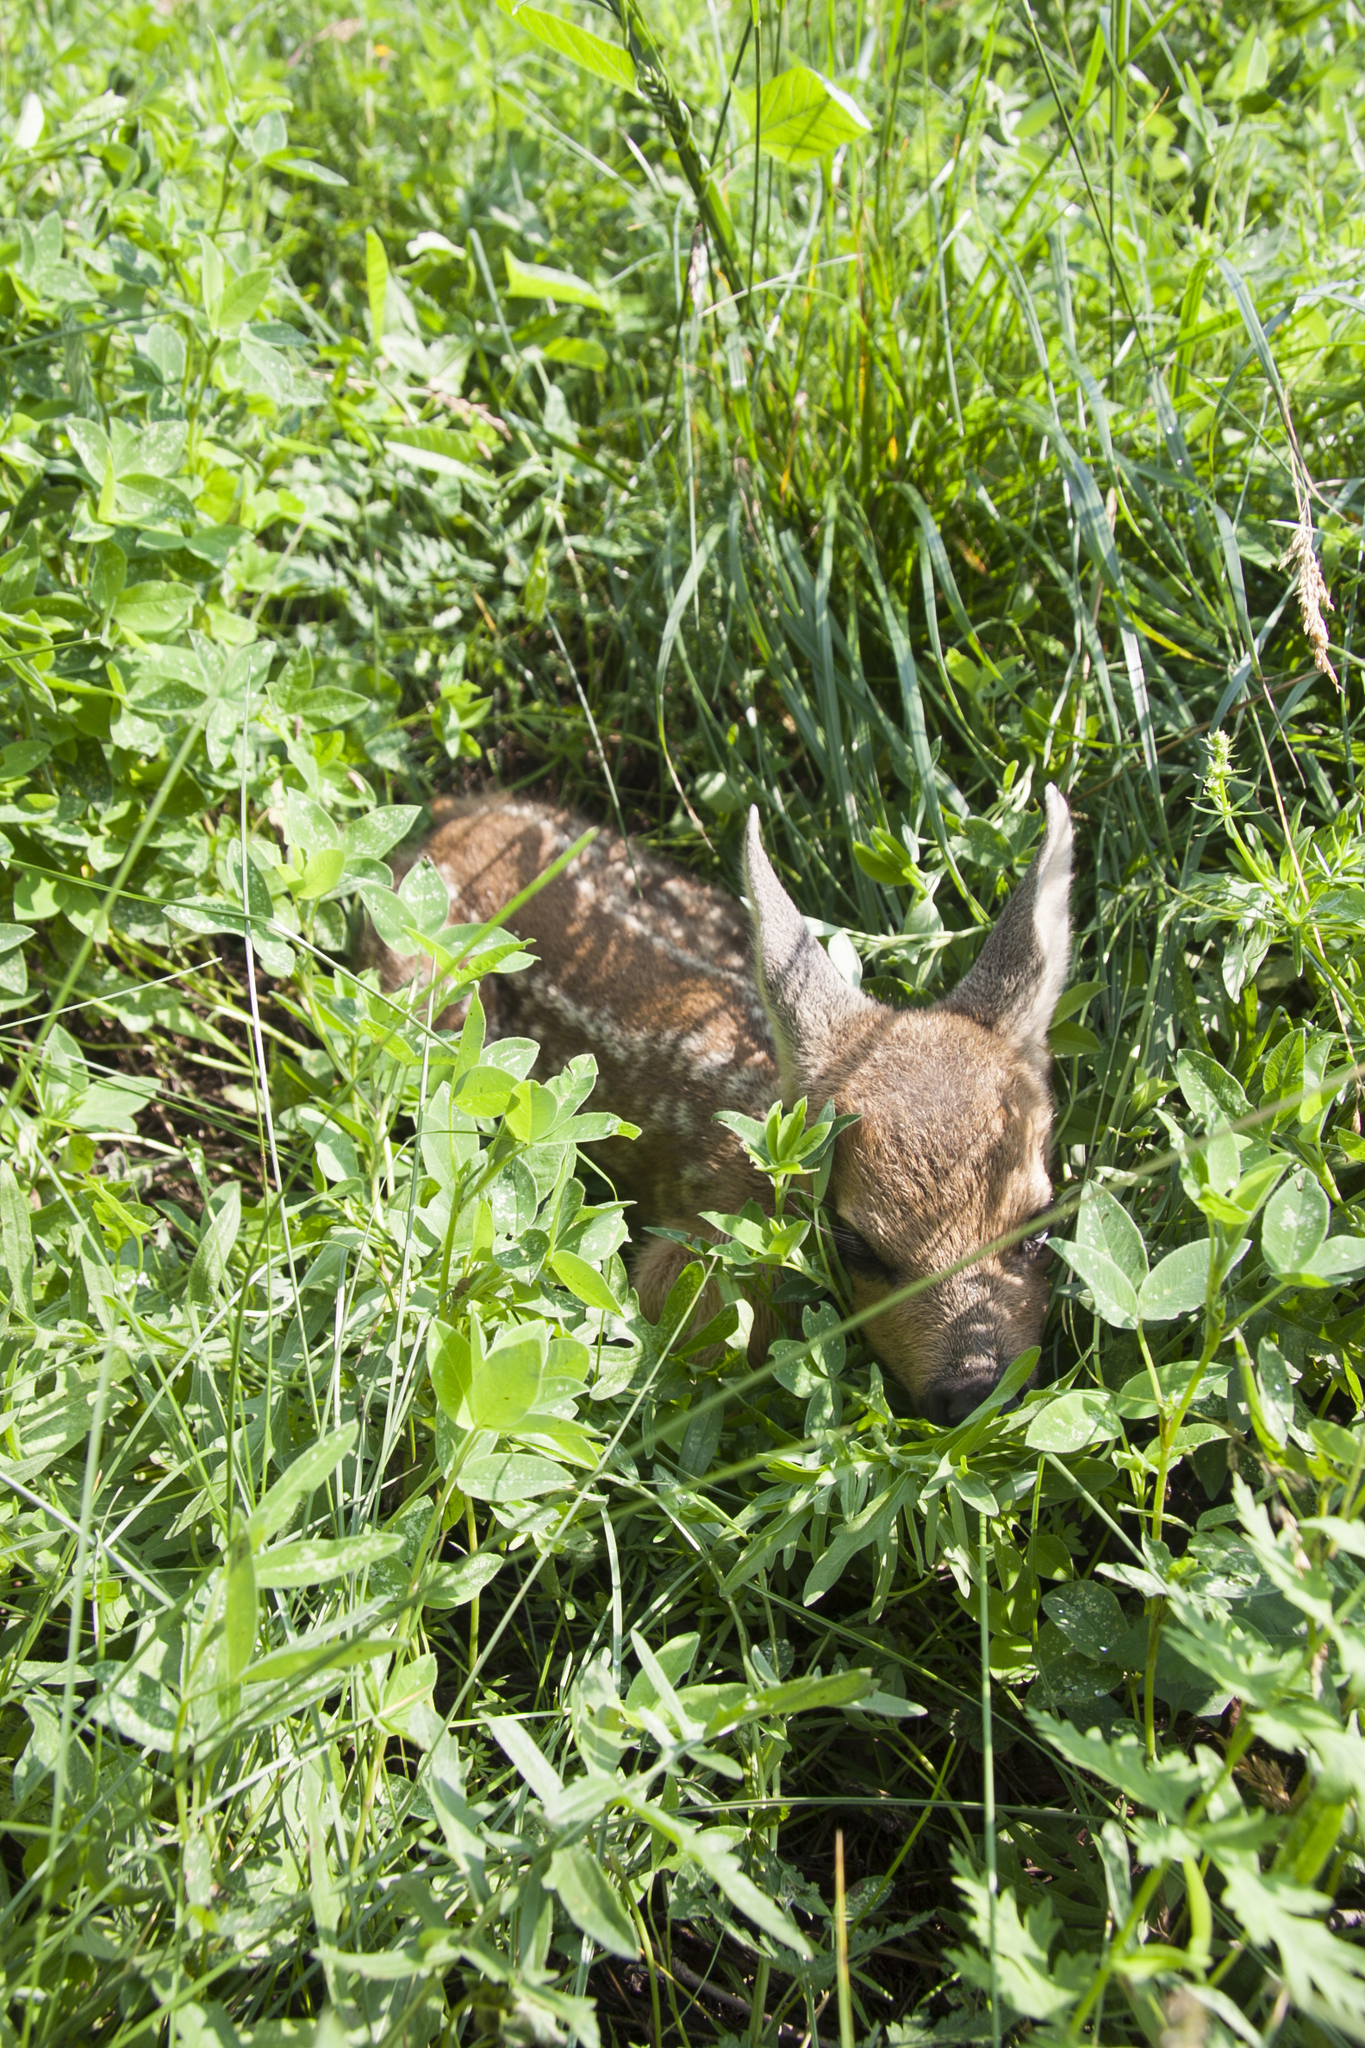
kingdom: Animalia
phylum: Chordata
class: Mammalia
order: Artiodactyla
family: Cervidae
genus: Capreolus
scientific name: Capreolus pygargus
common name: Siberian roe
